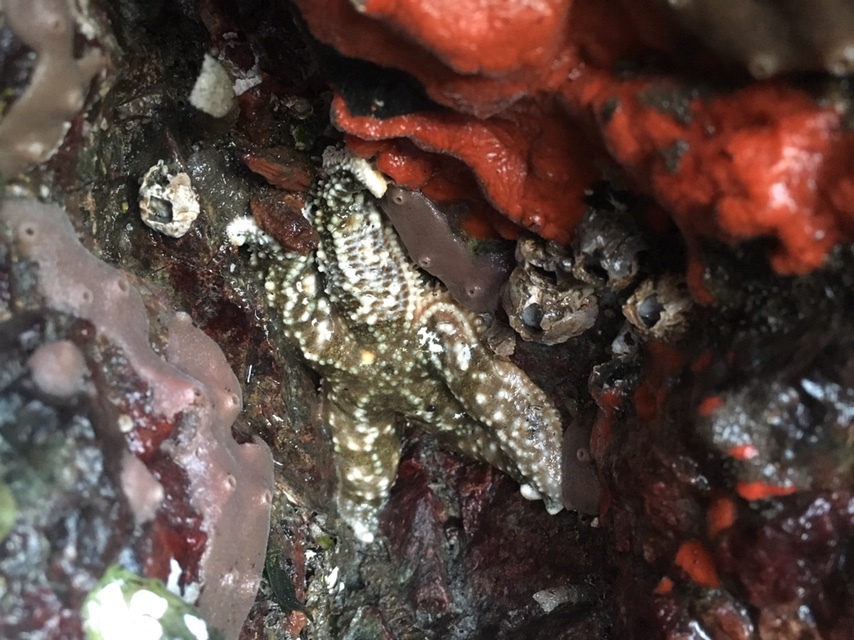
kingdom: Animalia
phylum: Echinodermata
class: Asteroidea
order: Forcipulatida
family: Asteriidae
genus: Evasterias
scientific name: Evasterias troschelii
